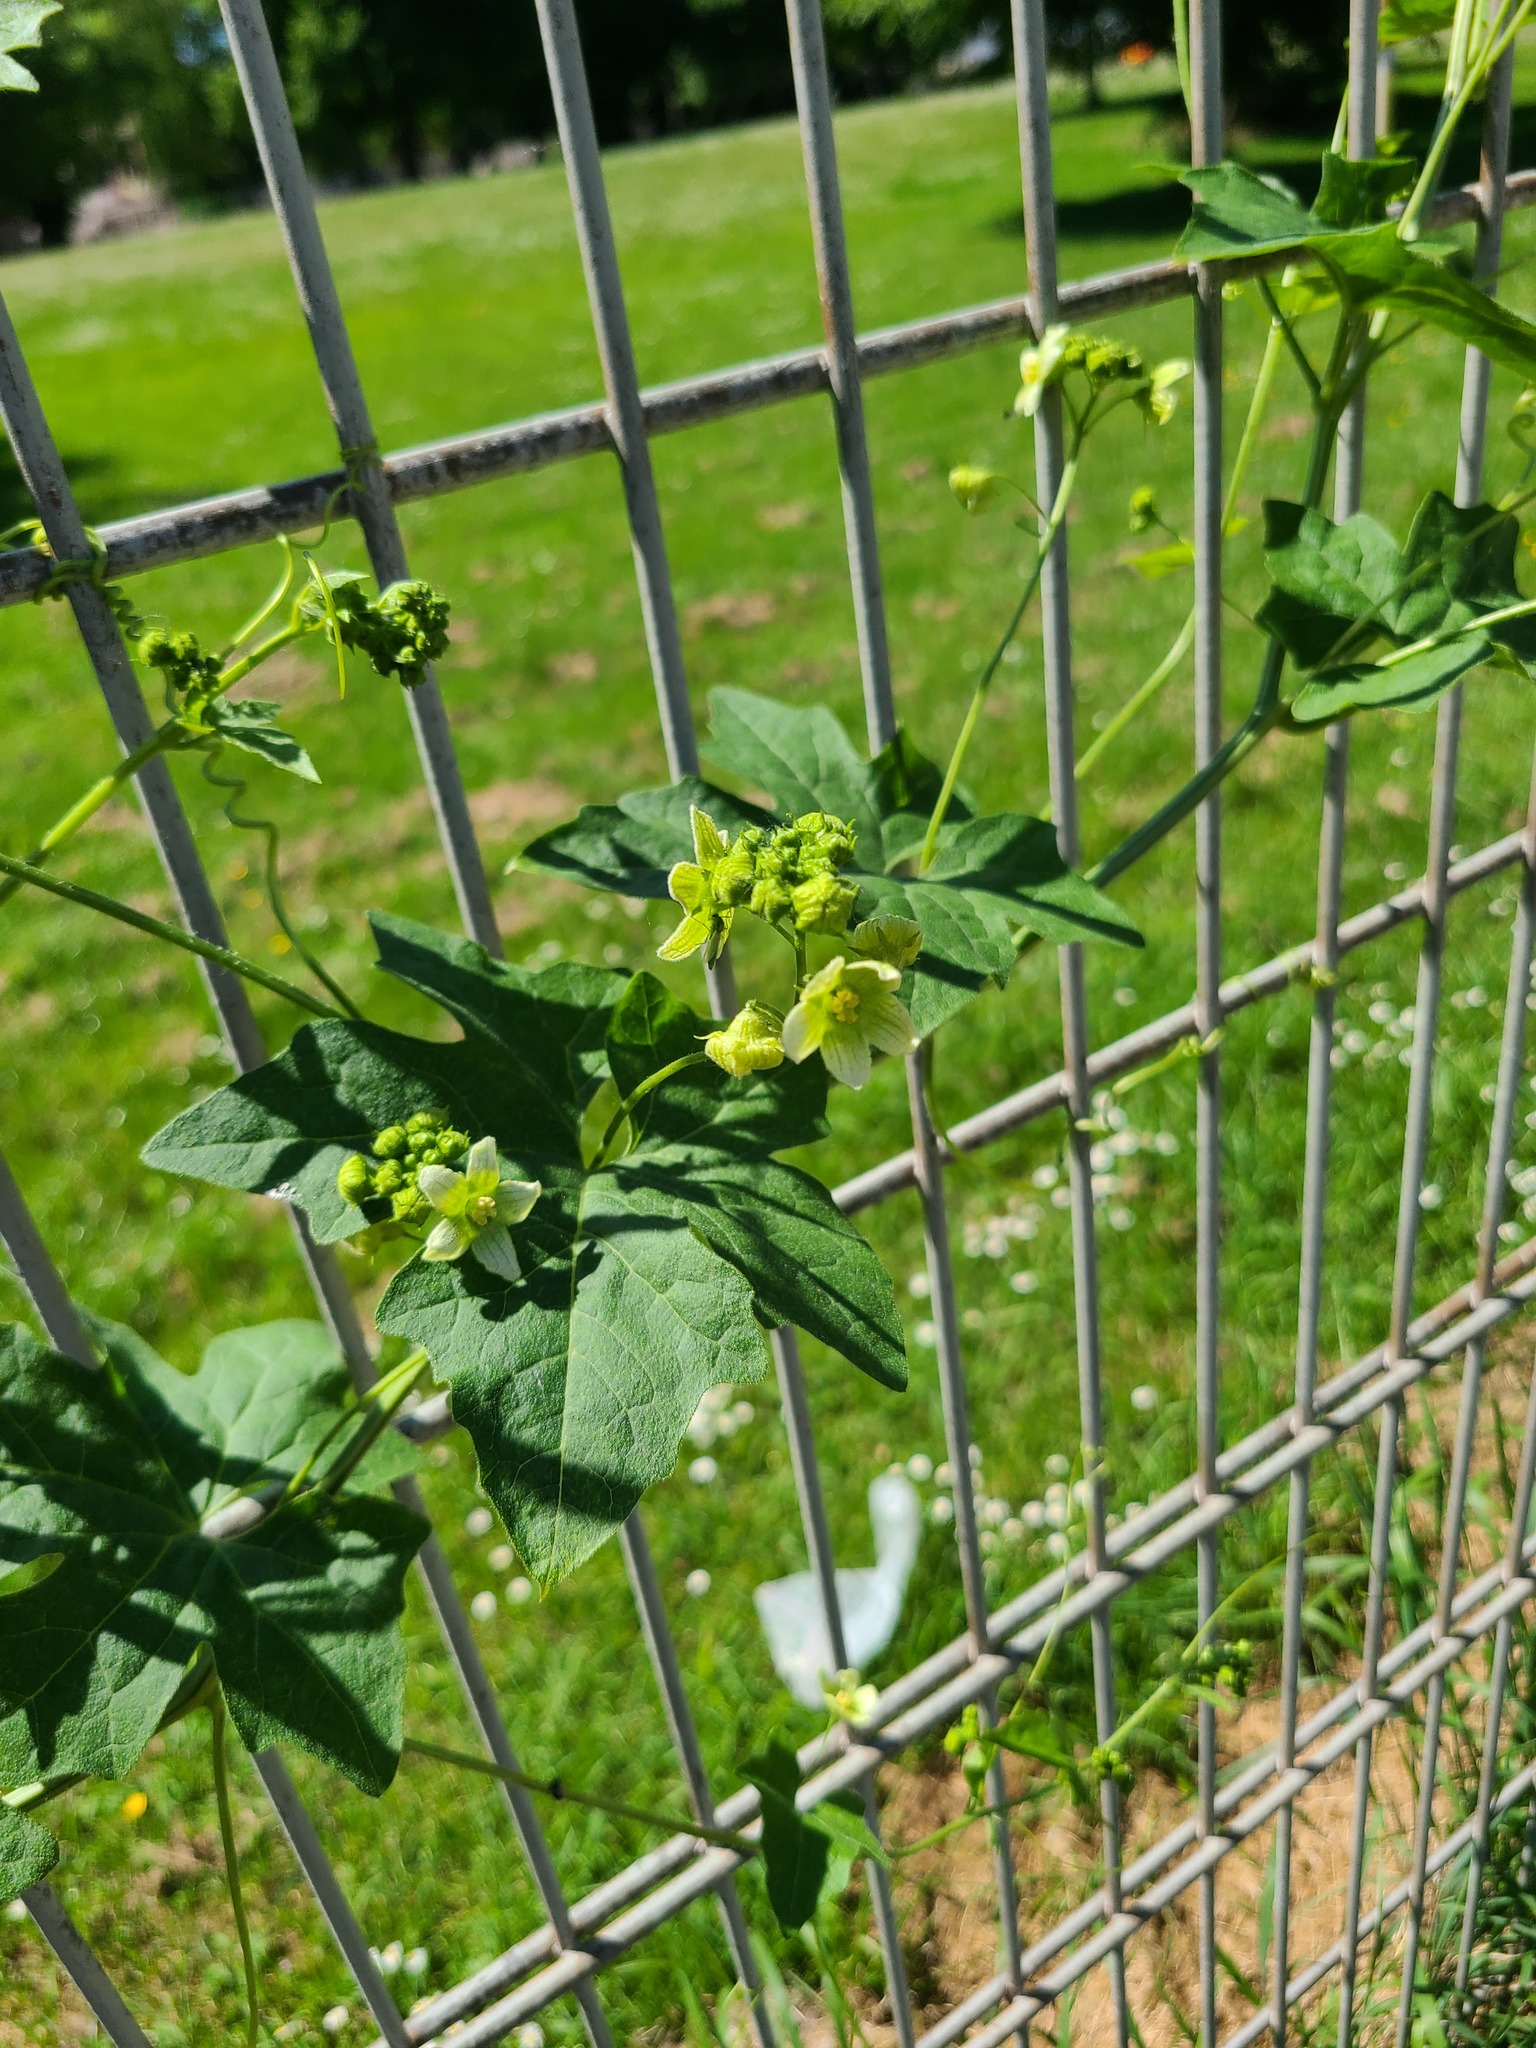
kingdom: Plantae
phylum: Tracheophyta
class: Magnoliopsida
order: Cucurbitales
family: Cucurbitaceae
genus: Bryonia
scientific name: Bryonia cretica
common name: Cretan bryony
